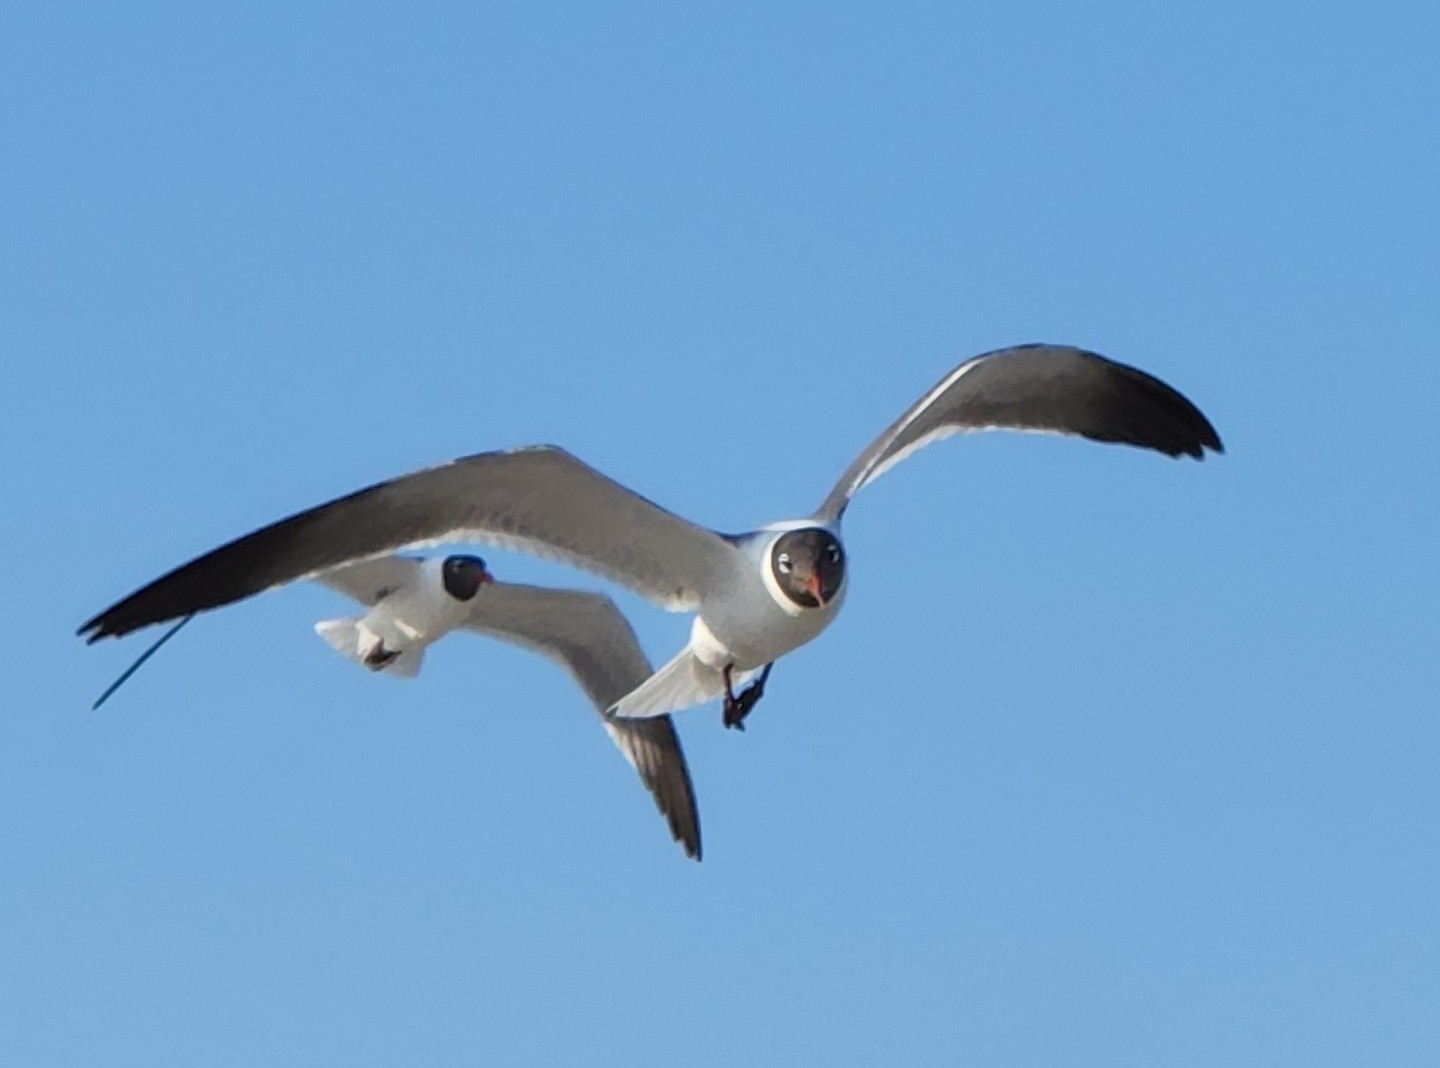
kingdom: Animalia
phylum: Chordata
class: Aves
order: Charadriiformes
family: Laridae
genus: Leucophaeus
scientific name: Leucophaeus atricilla
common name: Laughing gull
